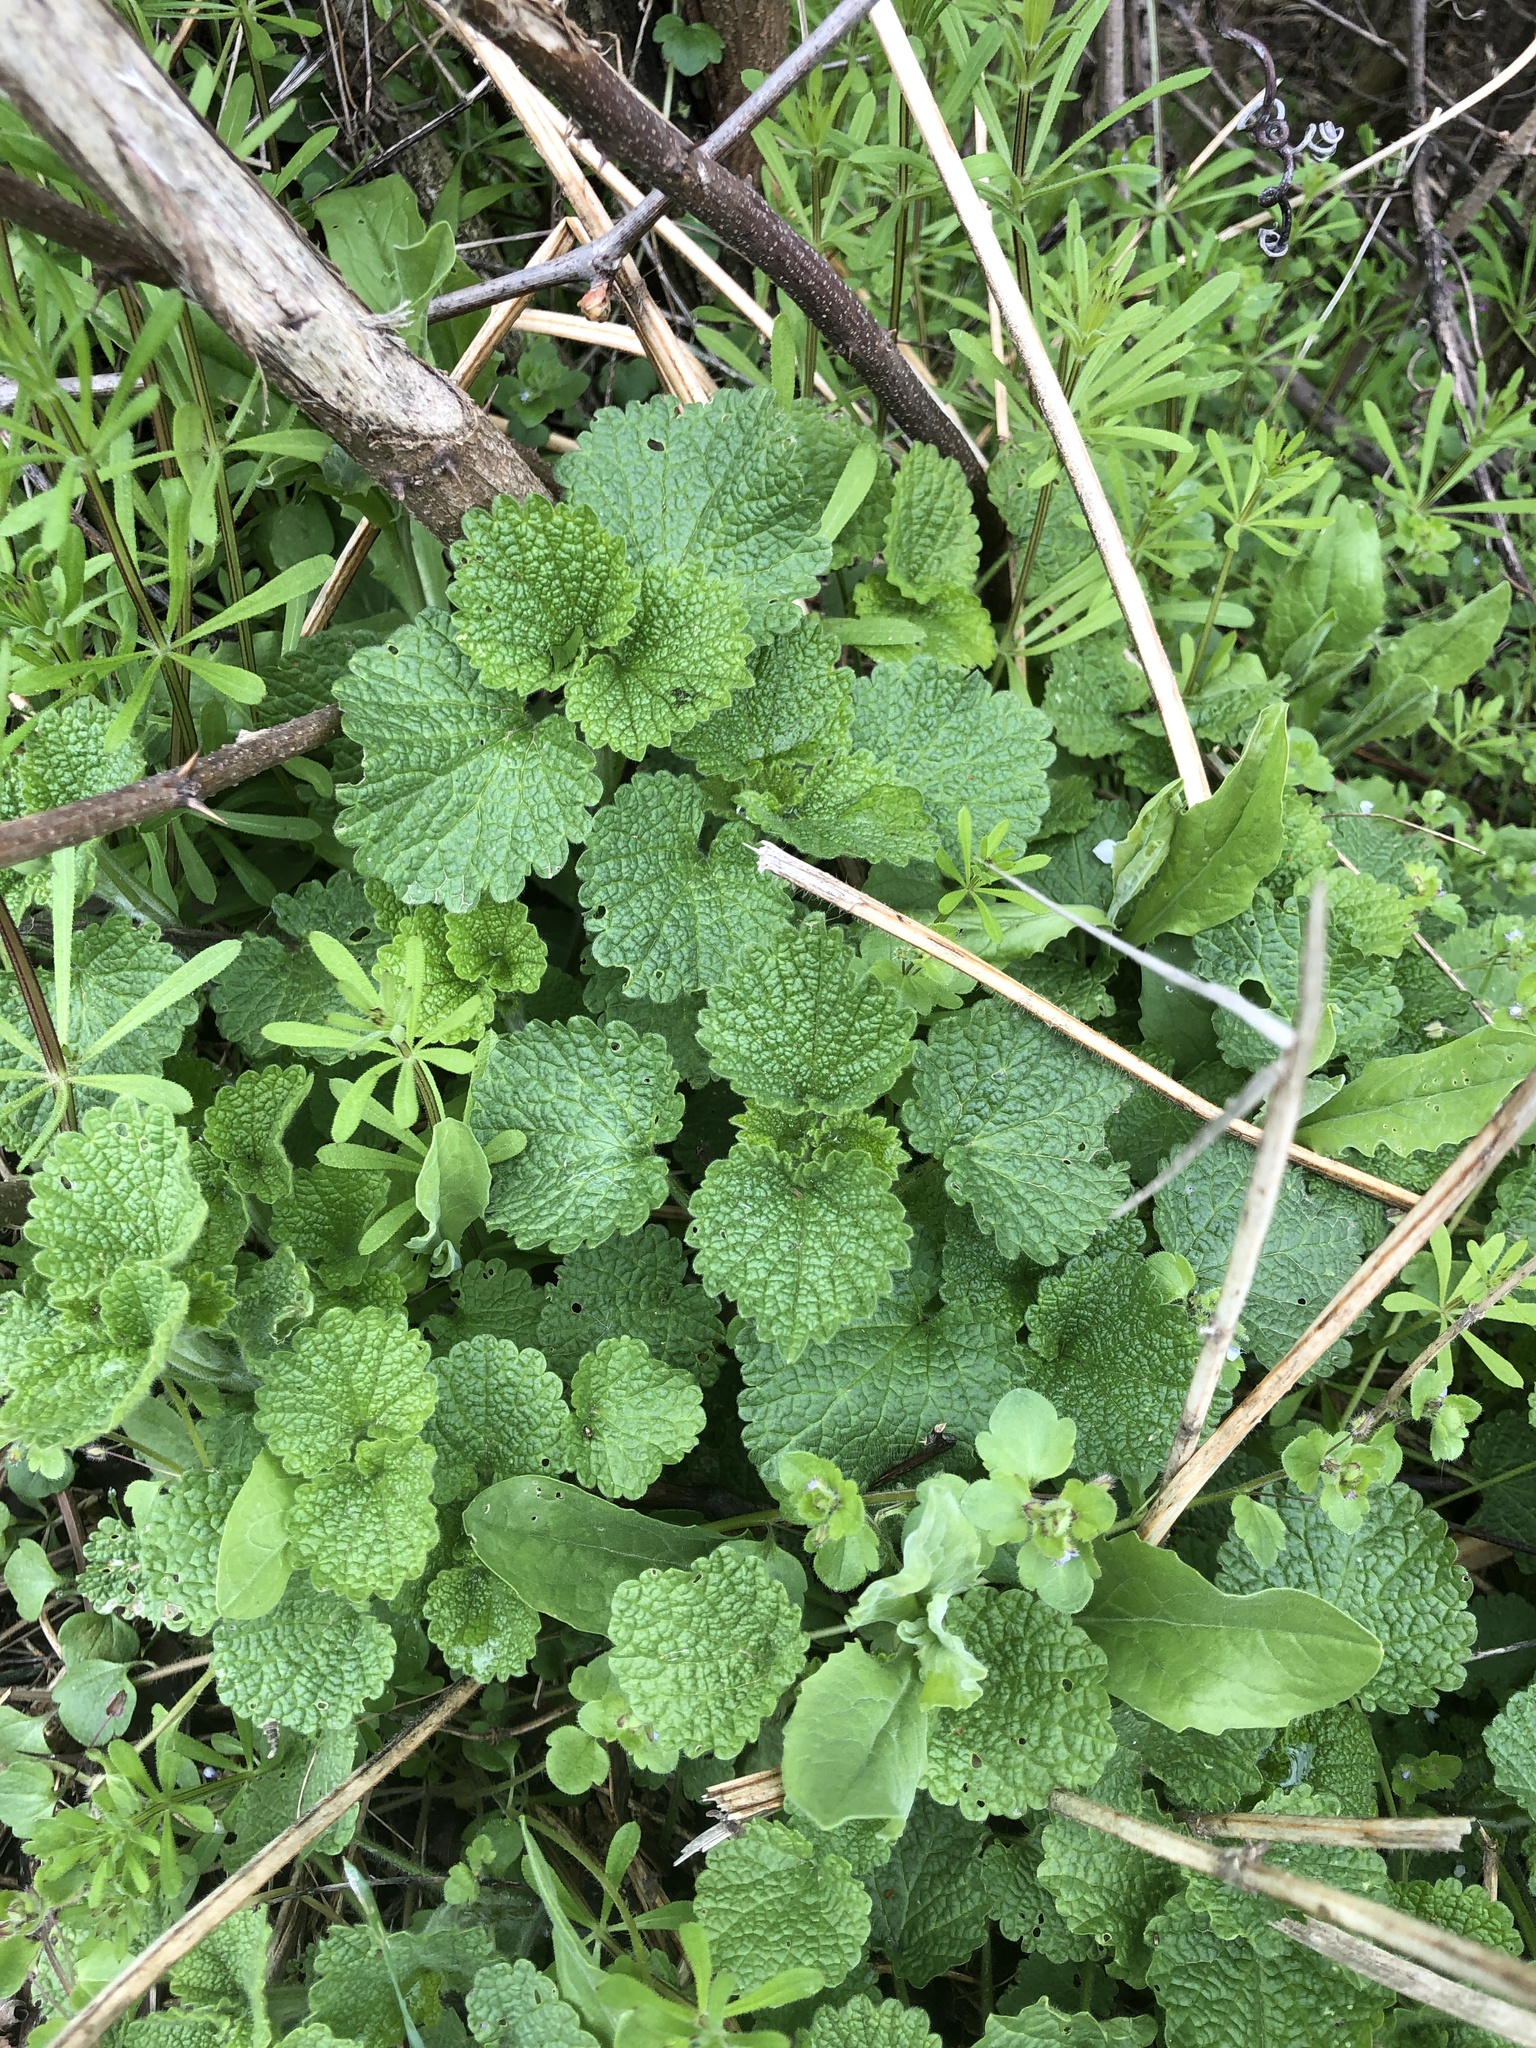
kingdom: Plantae
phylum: Tracheophyta
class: Magnoliopsida
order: Lamiales
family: Lamiaceae
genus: Ballota
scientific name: Ballota nigra
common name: Black horehound
